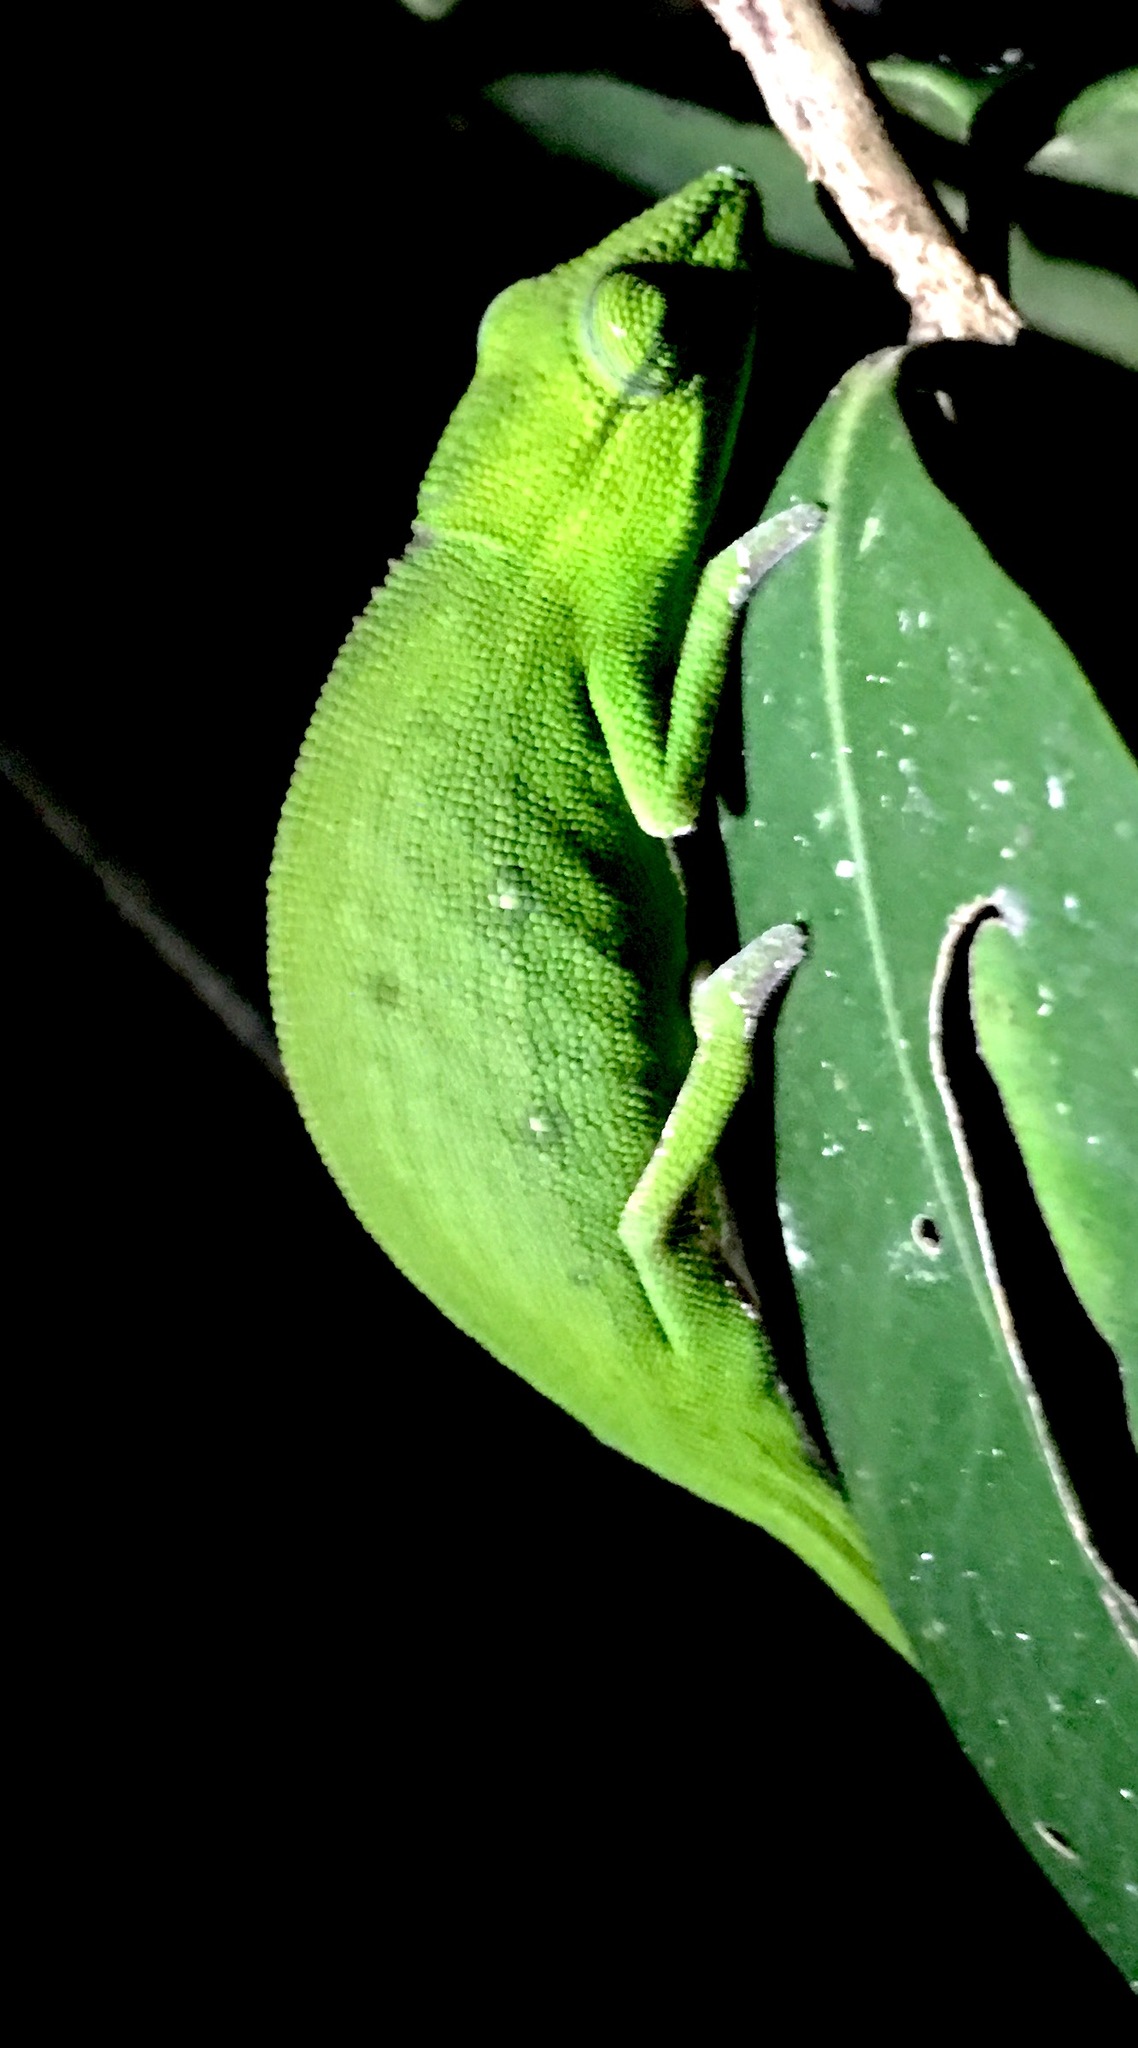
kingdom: Animalia
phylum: Chordata
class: Squamata
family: Chamaeleonidae
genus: Calumma
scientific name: Calumma gastrotaenia
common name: Short-nosed chameleon
